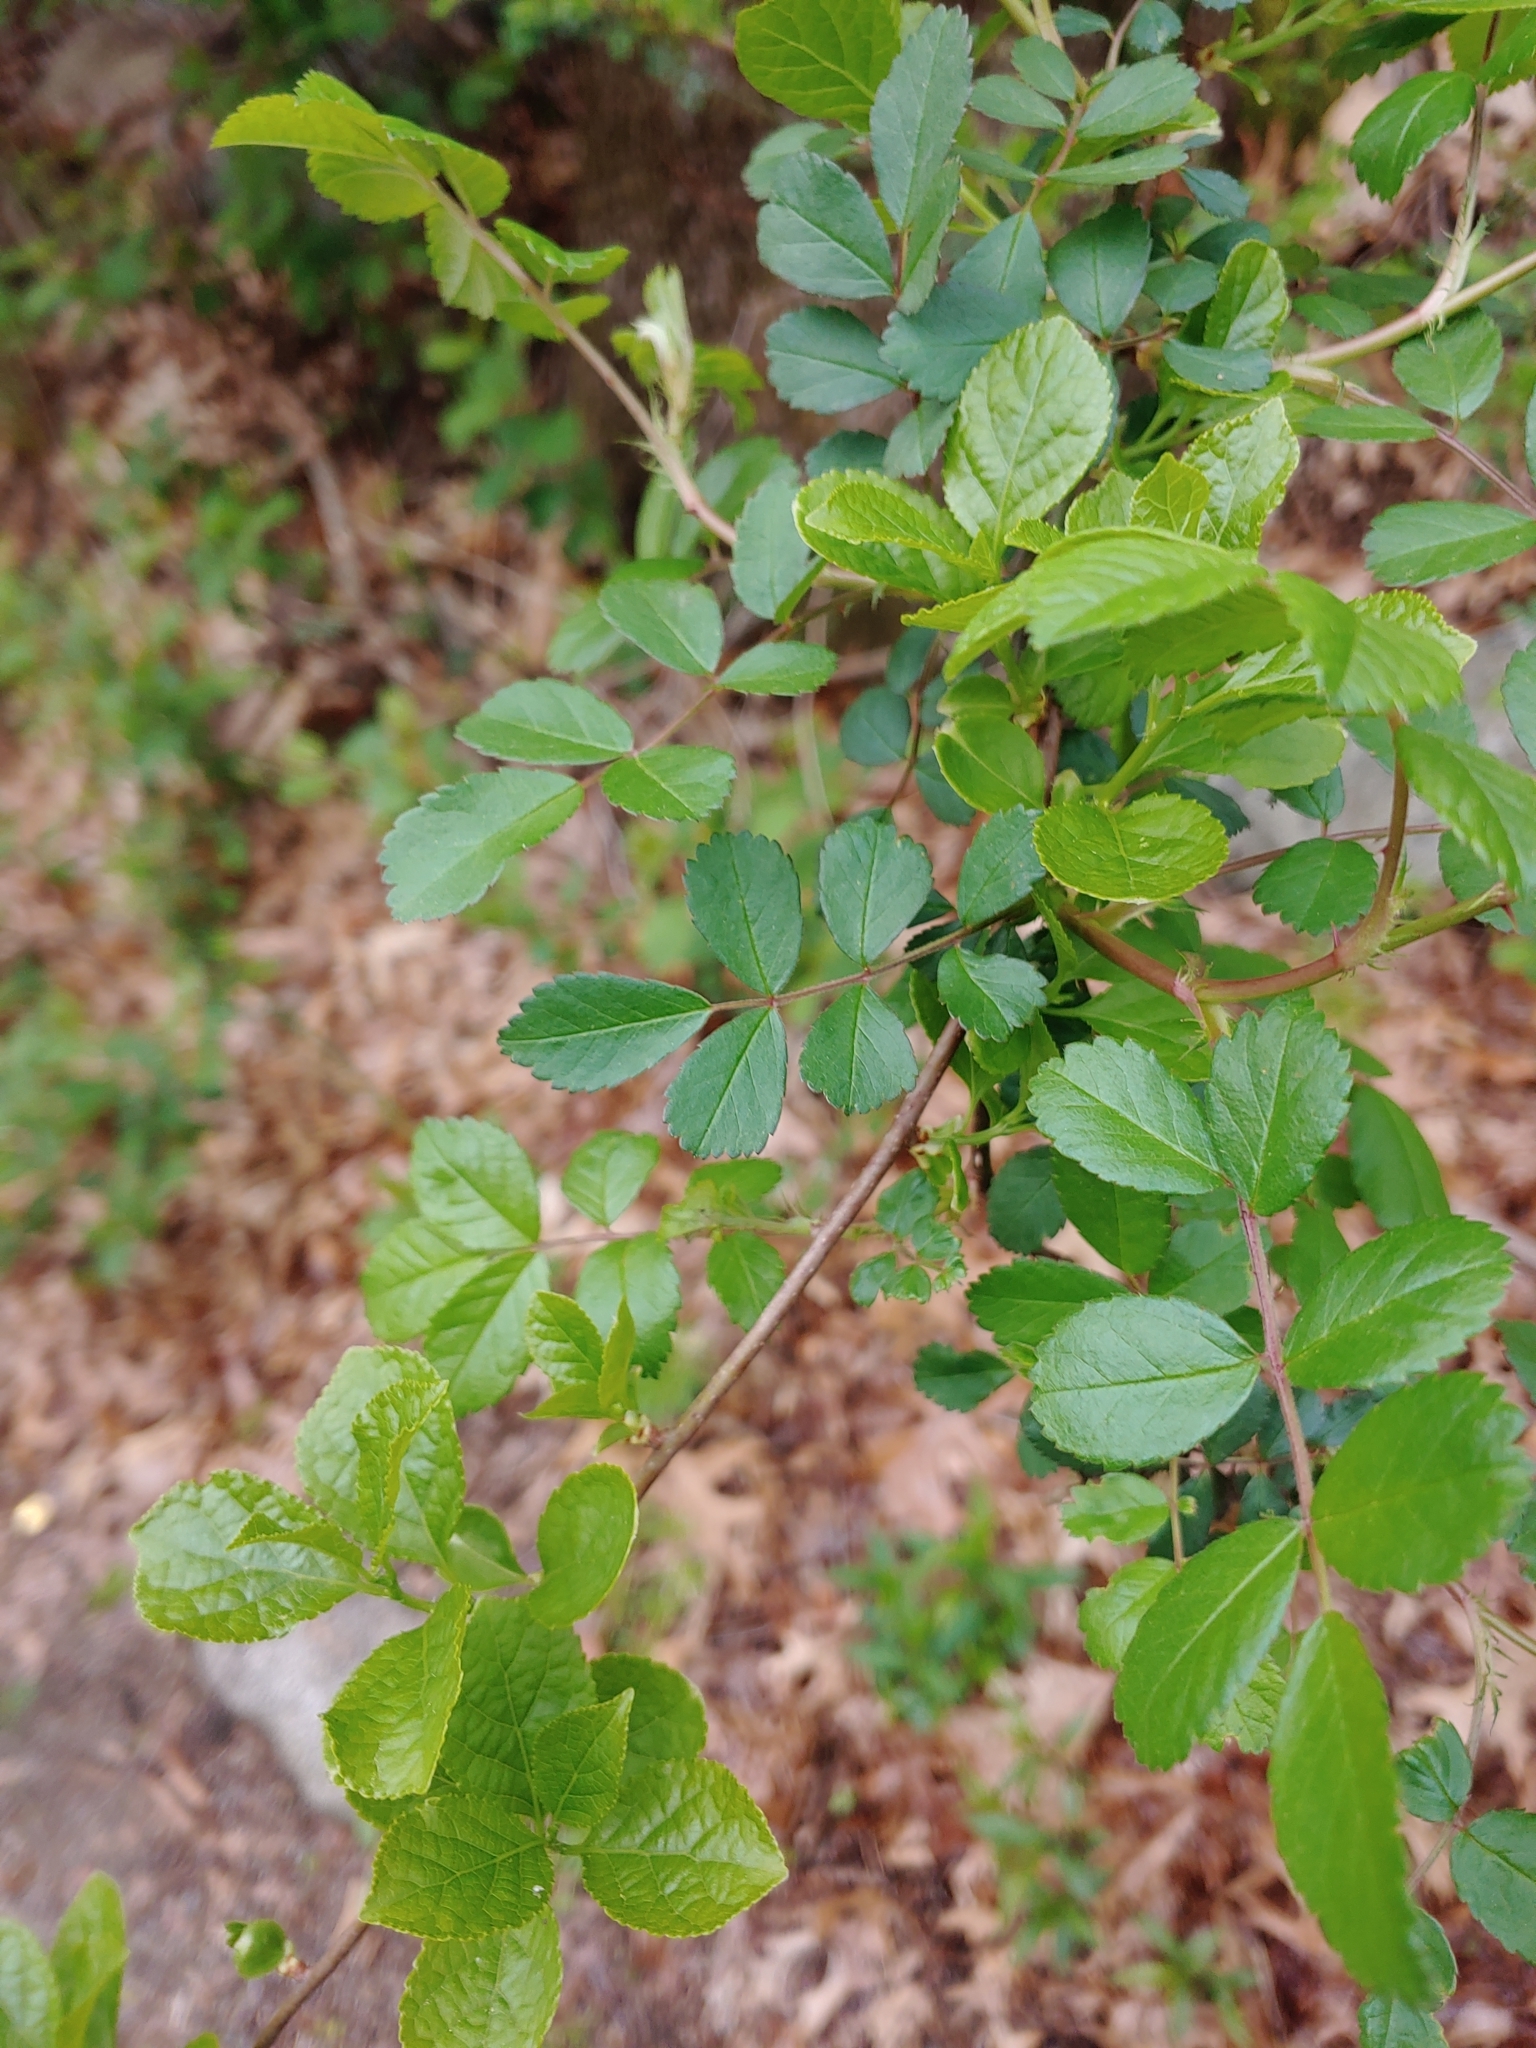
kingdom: Plantae
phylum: Tracheophyta
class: Magnoliopsida
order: Rosales
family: Rosaceae
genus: Rosa
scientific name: Rosa multiflora
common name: Multiflora rose
